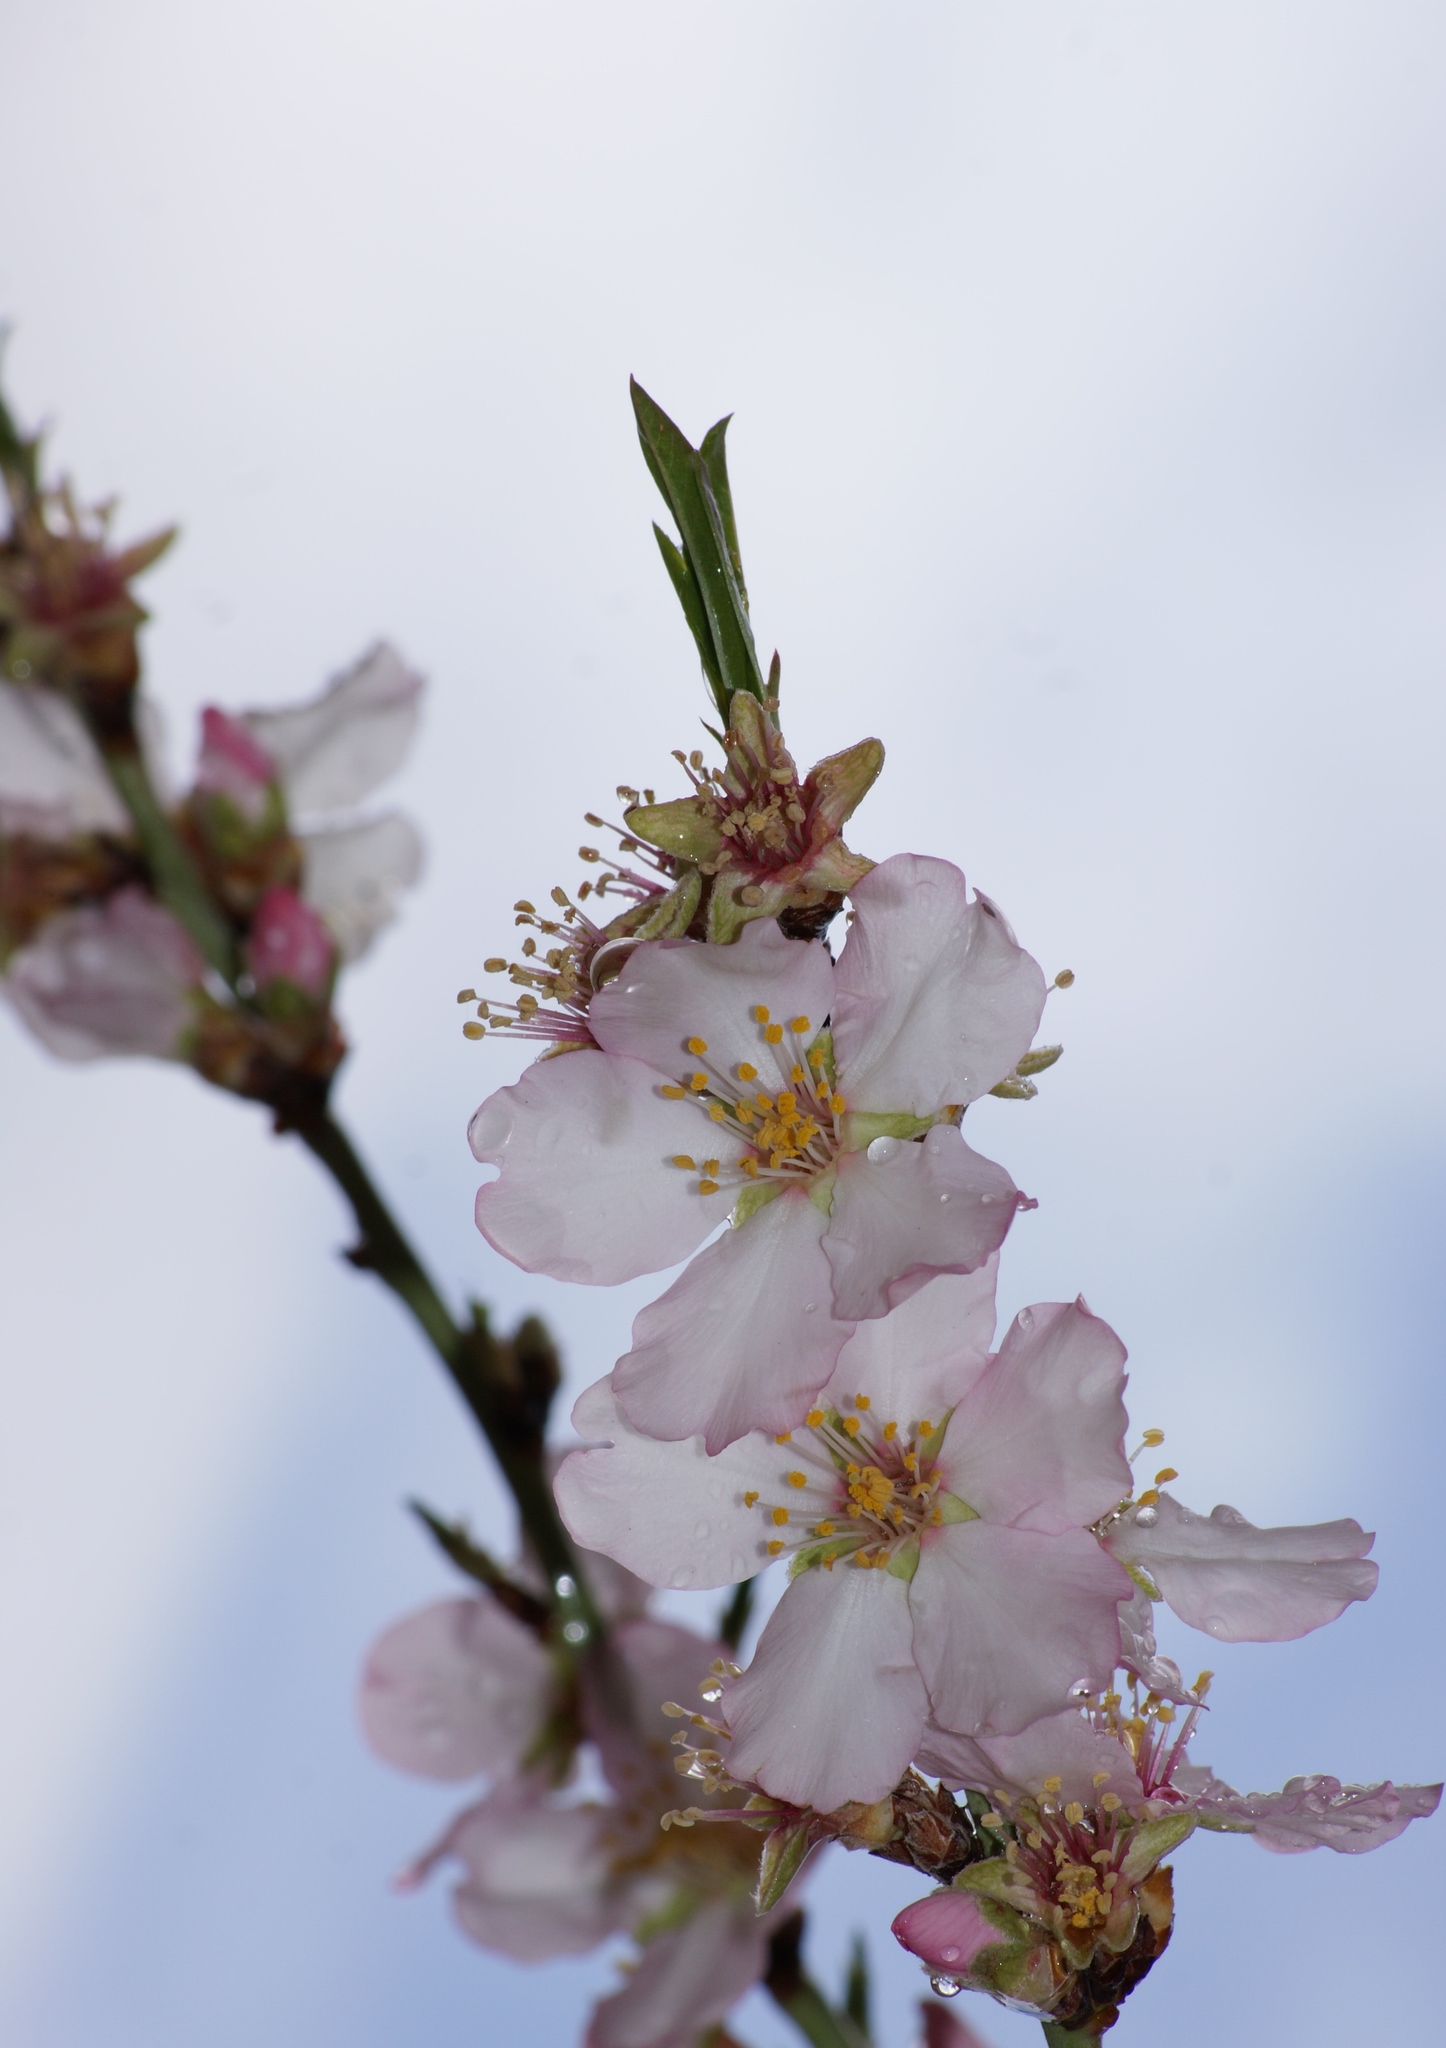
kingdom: Plantae
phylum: Tracheophyta
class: Magnoliopsida
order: Rosales
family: Rosaceae
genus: Prunus
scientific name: Prunus amygdalus
